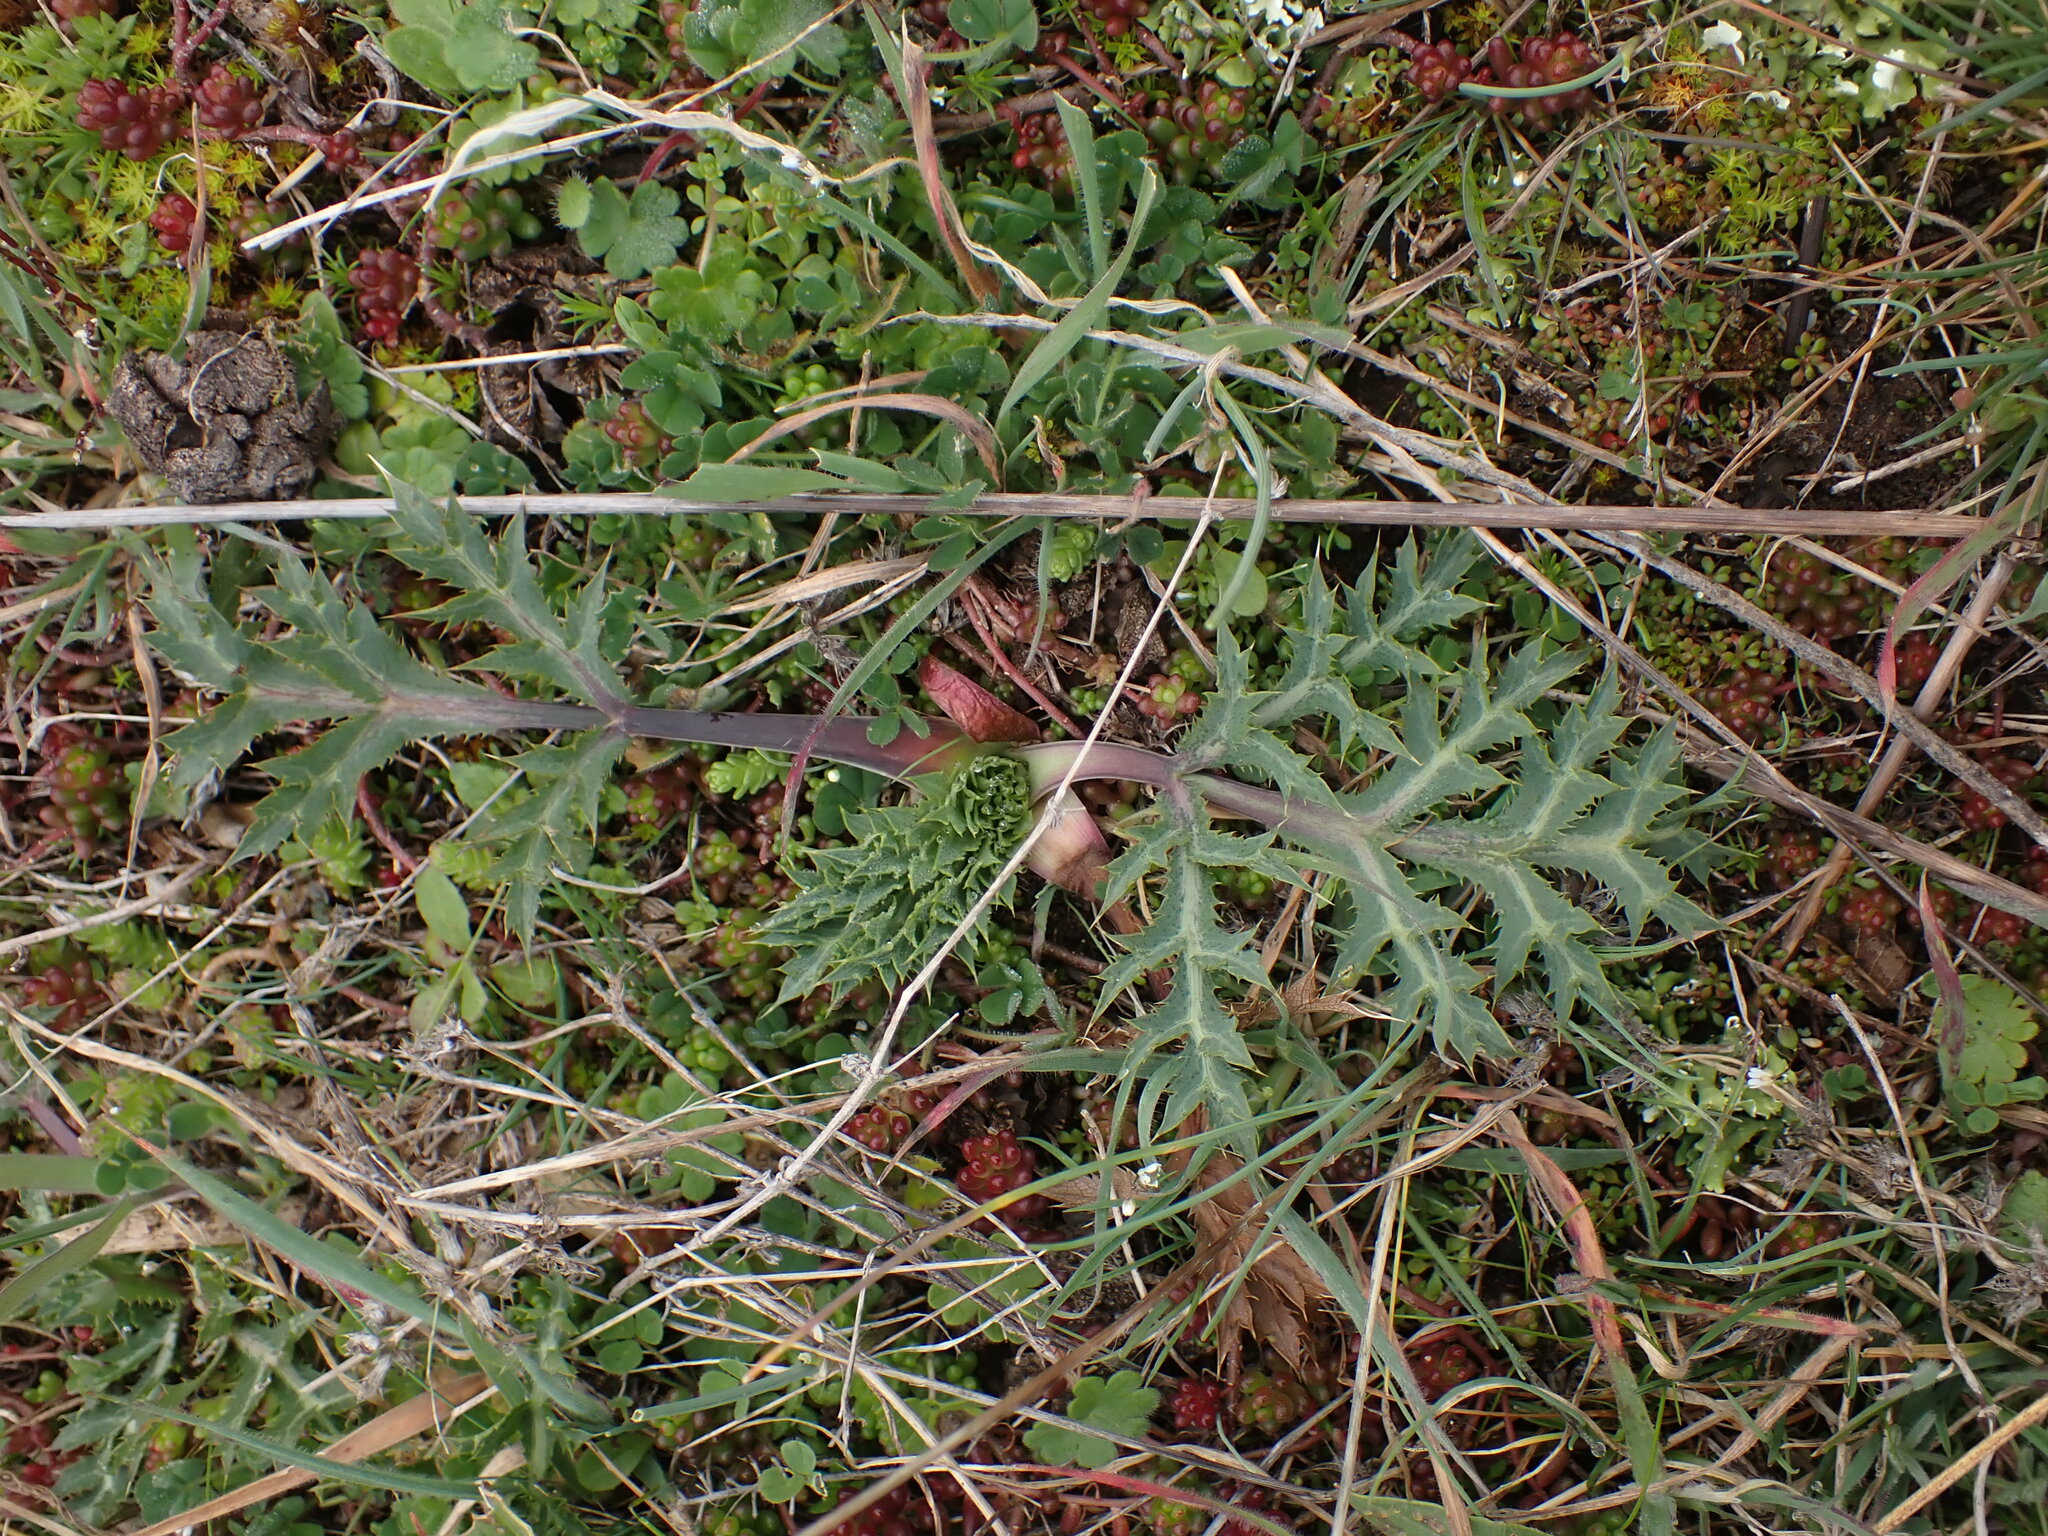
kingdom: Plantae
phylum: Tracheophyta
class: Magnoliopsida
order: Apiales
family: Apiaceae
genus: Eryngium
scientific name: Eryngium campestre
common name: Field eryngo
